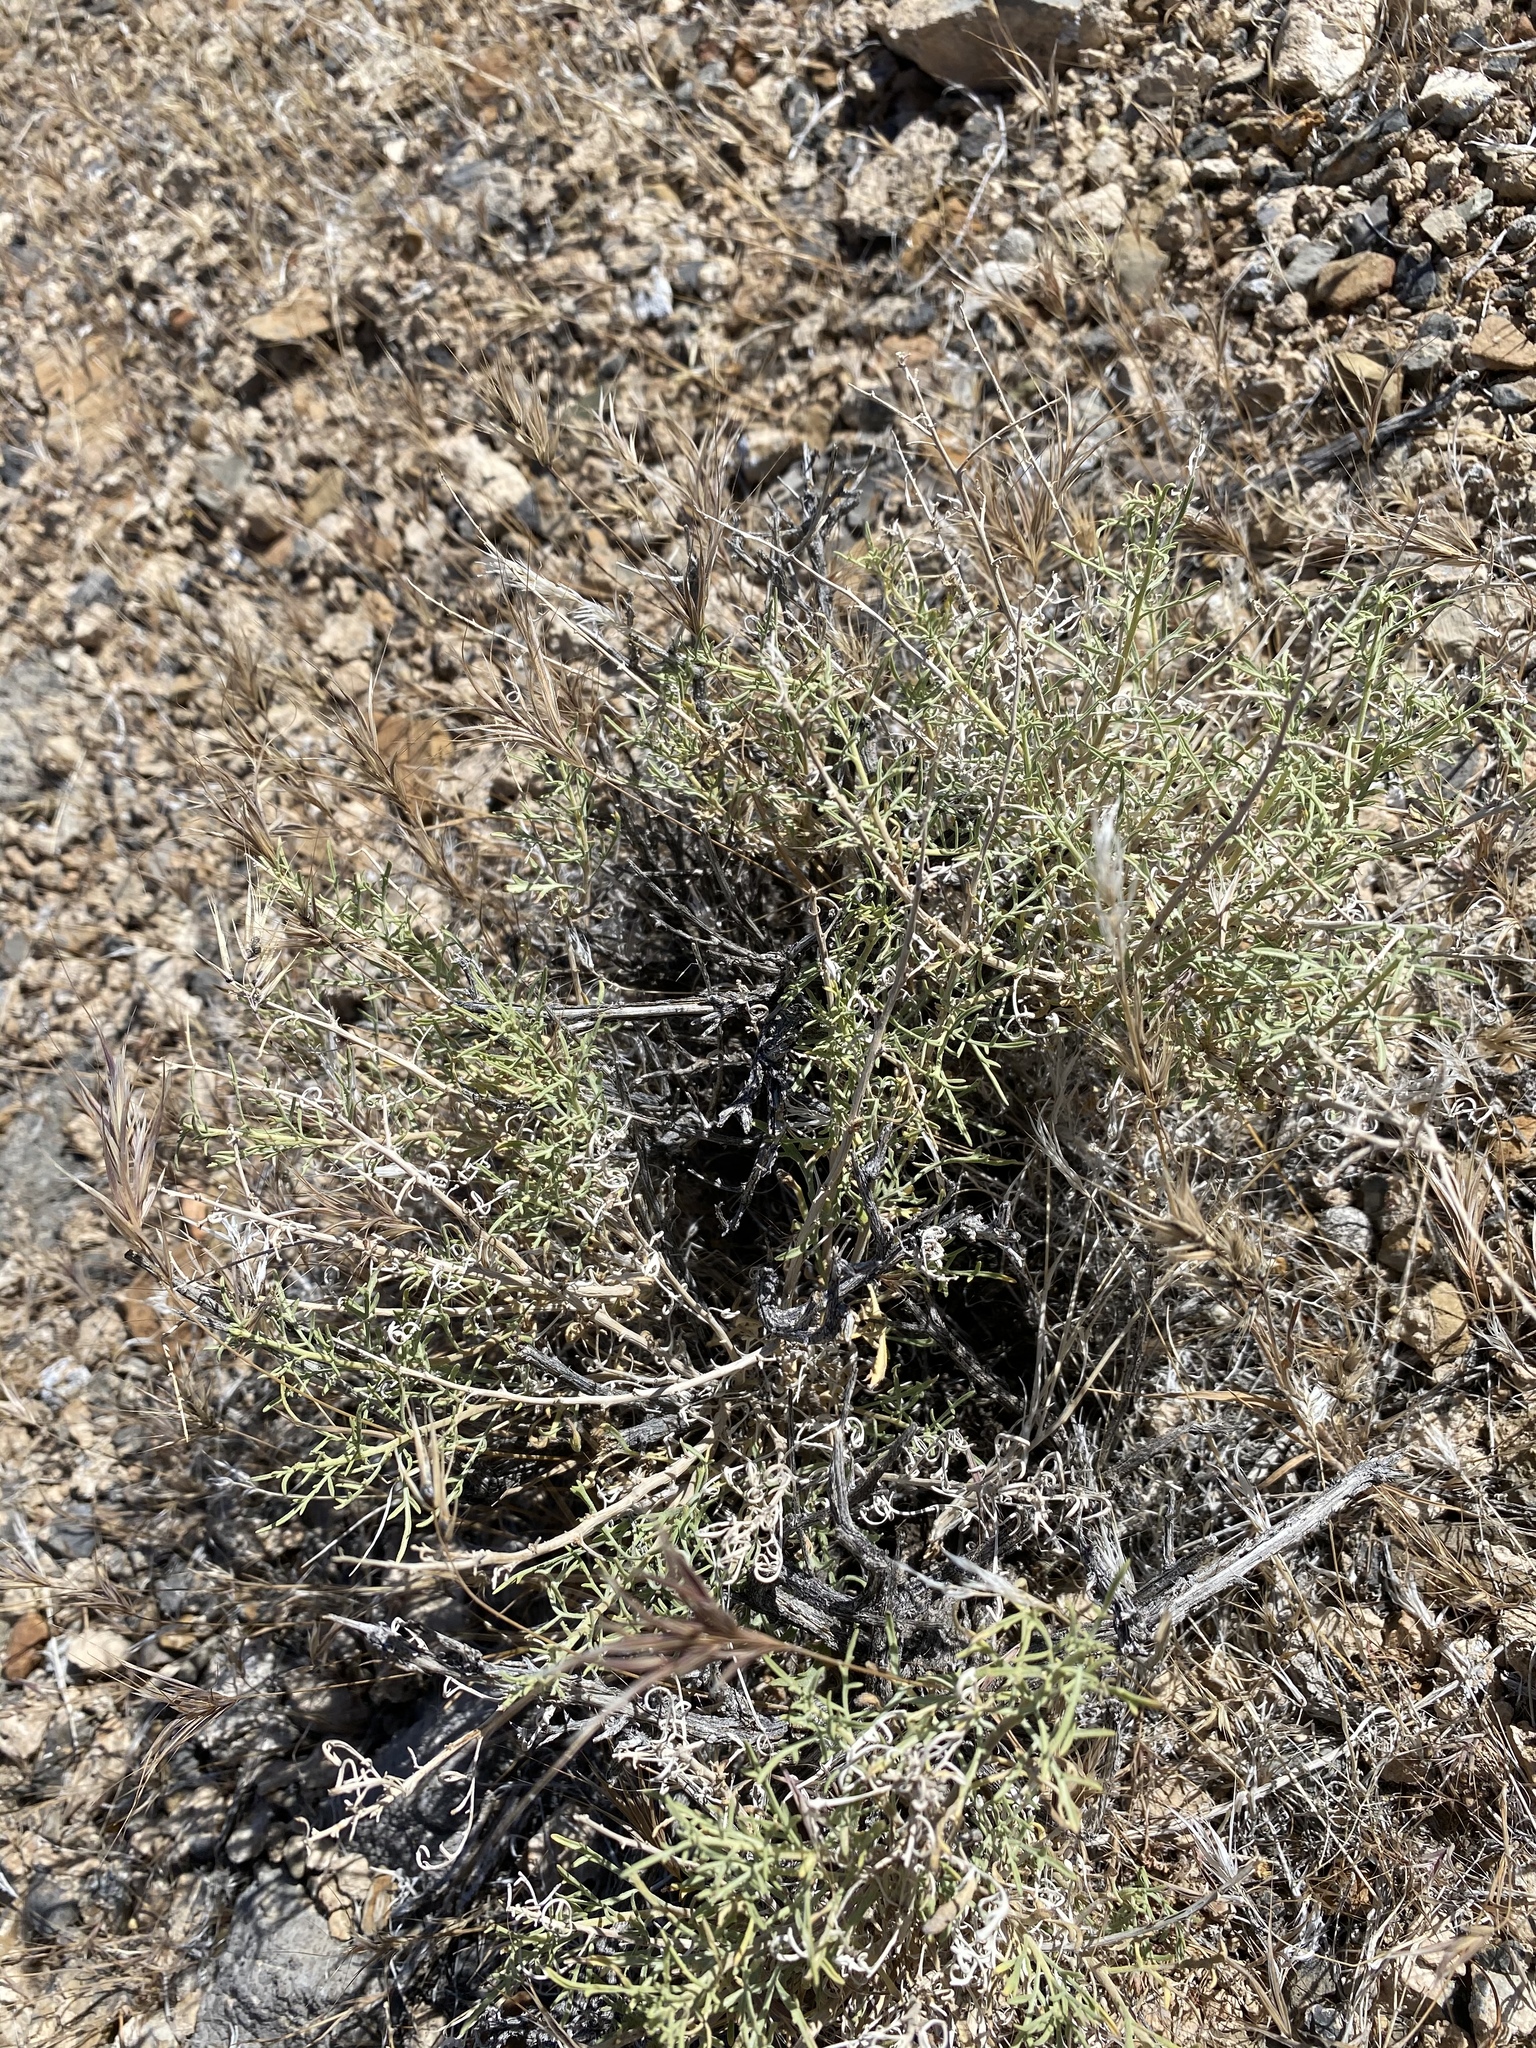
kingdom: Plantae
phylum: Tracheophyta
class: Magnoliopsida
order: Asterales
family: Asteraceae
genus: Ambrosia
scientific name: Ambrosia platyspina
